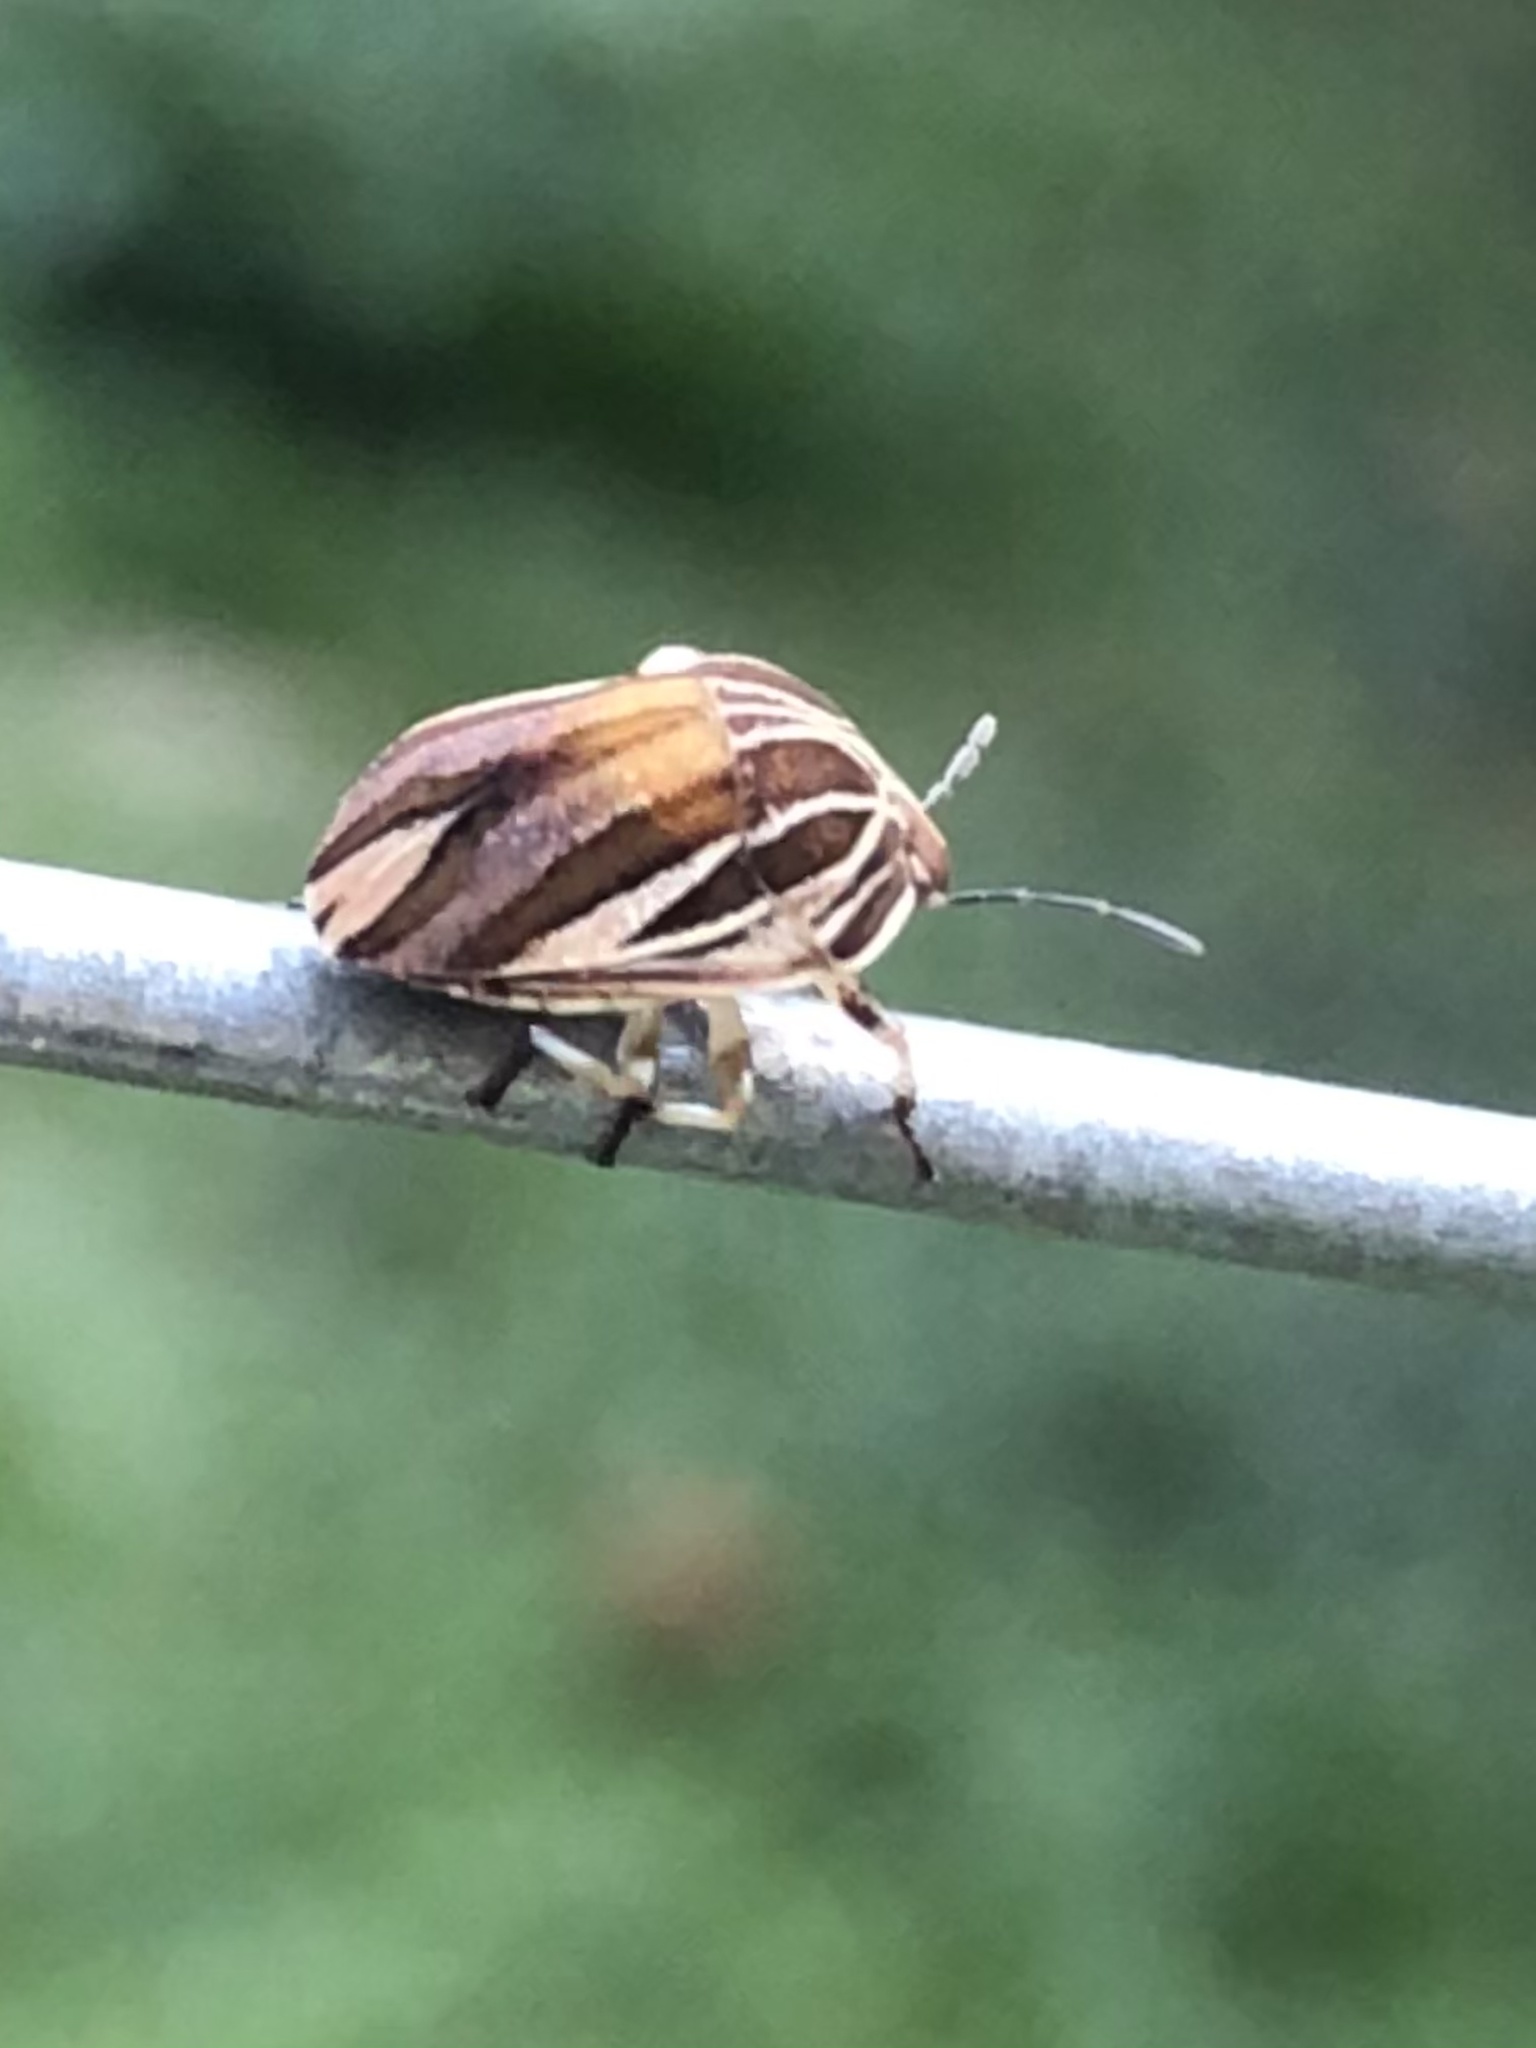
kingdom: Animalia
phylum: Arthropoda
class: Insecta
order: Hemiptera
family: Scutelleridae
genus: Symphylus
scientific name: Symphylus ramivitta
